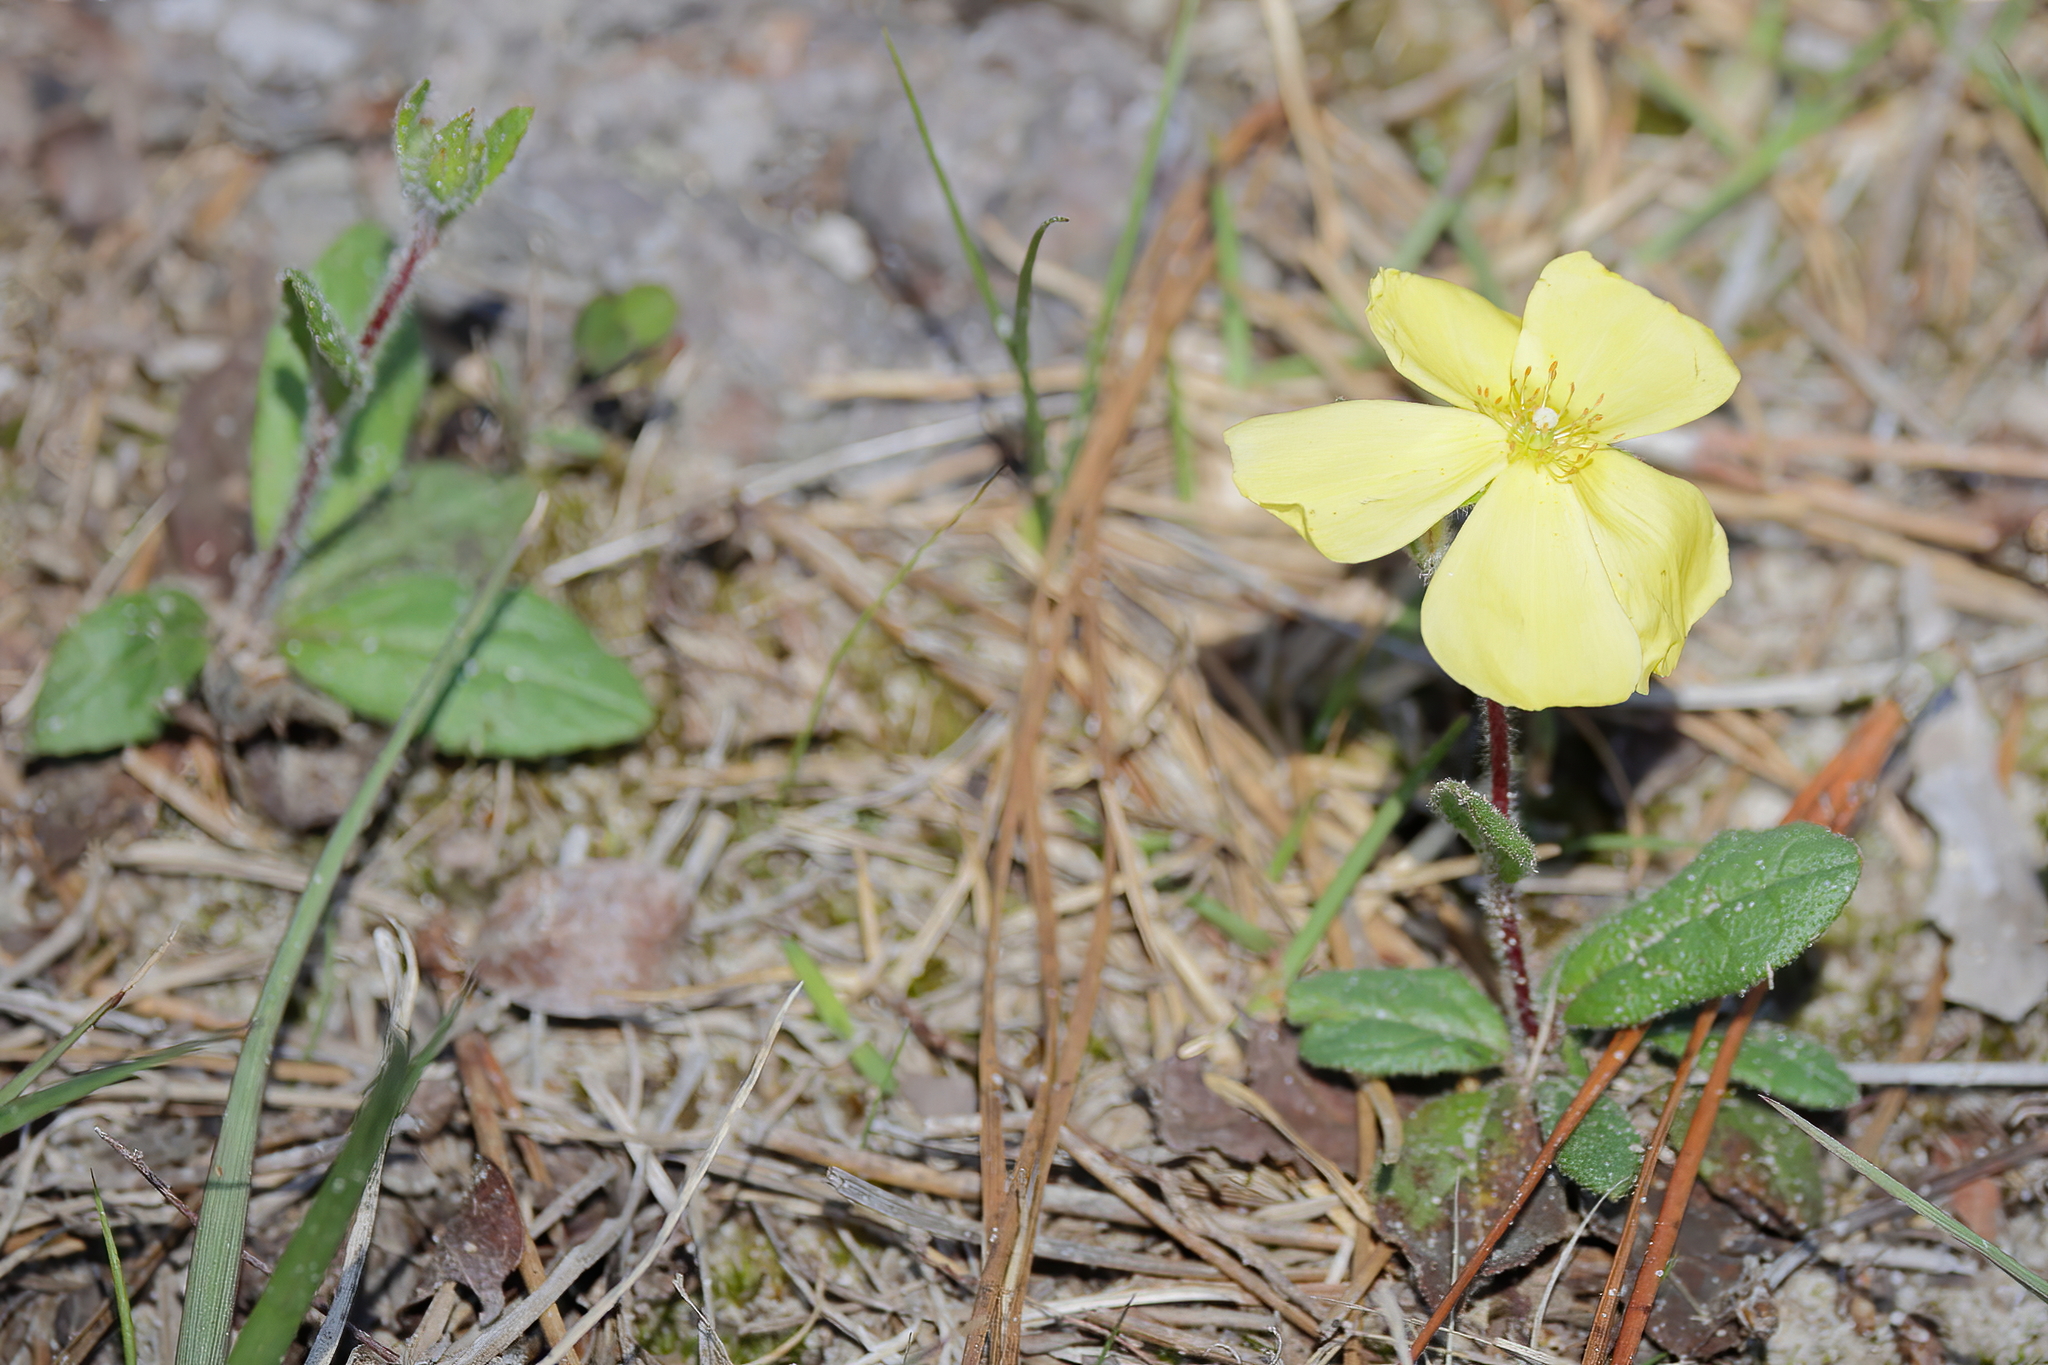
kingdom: Plantae
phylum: Tracheophyta
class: Magnoliopsida
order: Malvales
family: Cistaceae
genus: Crocanthemum
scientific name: Crocanthemum carolinianum
